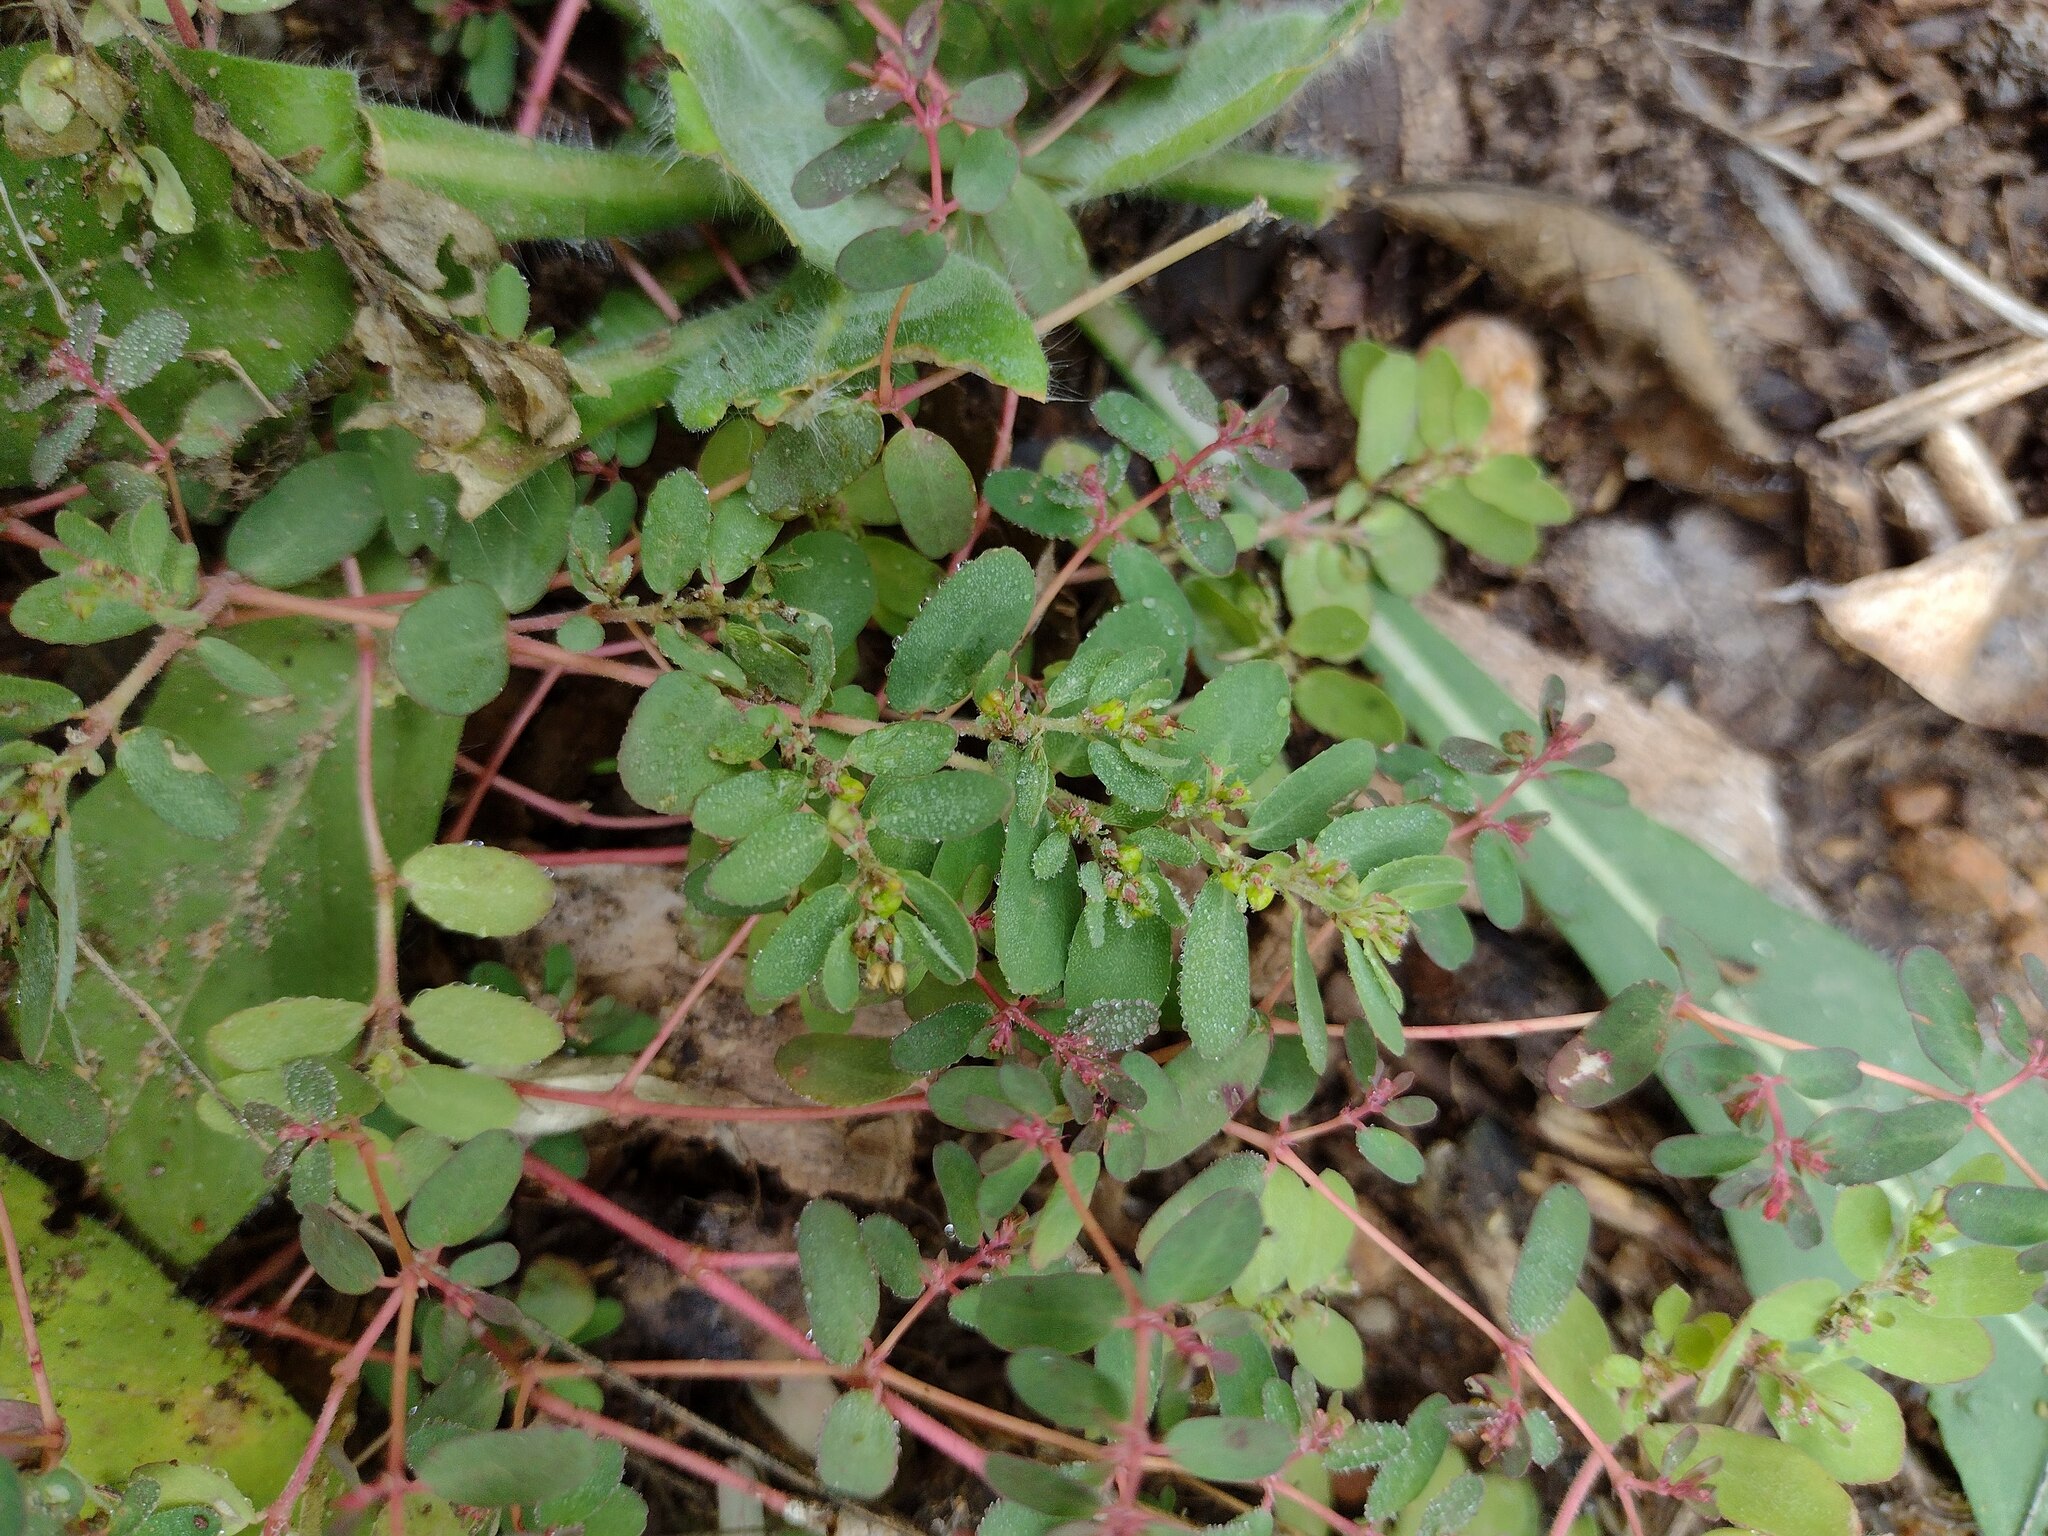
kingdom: Plantae
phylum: Tracheophyta
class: Magnoliopsida
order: Malpighiales
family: Euphorbiaceae
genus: Euphorbia
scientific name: Euphorbia prostrata
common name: Prostrate sandmat
